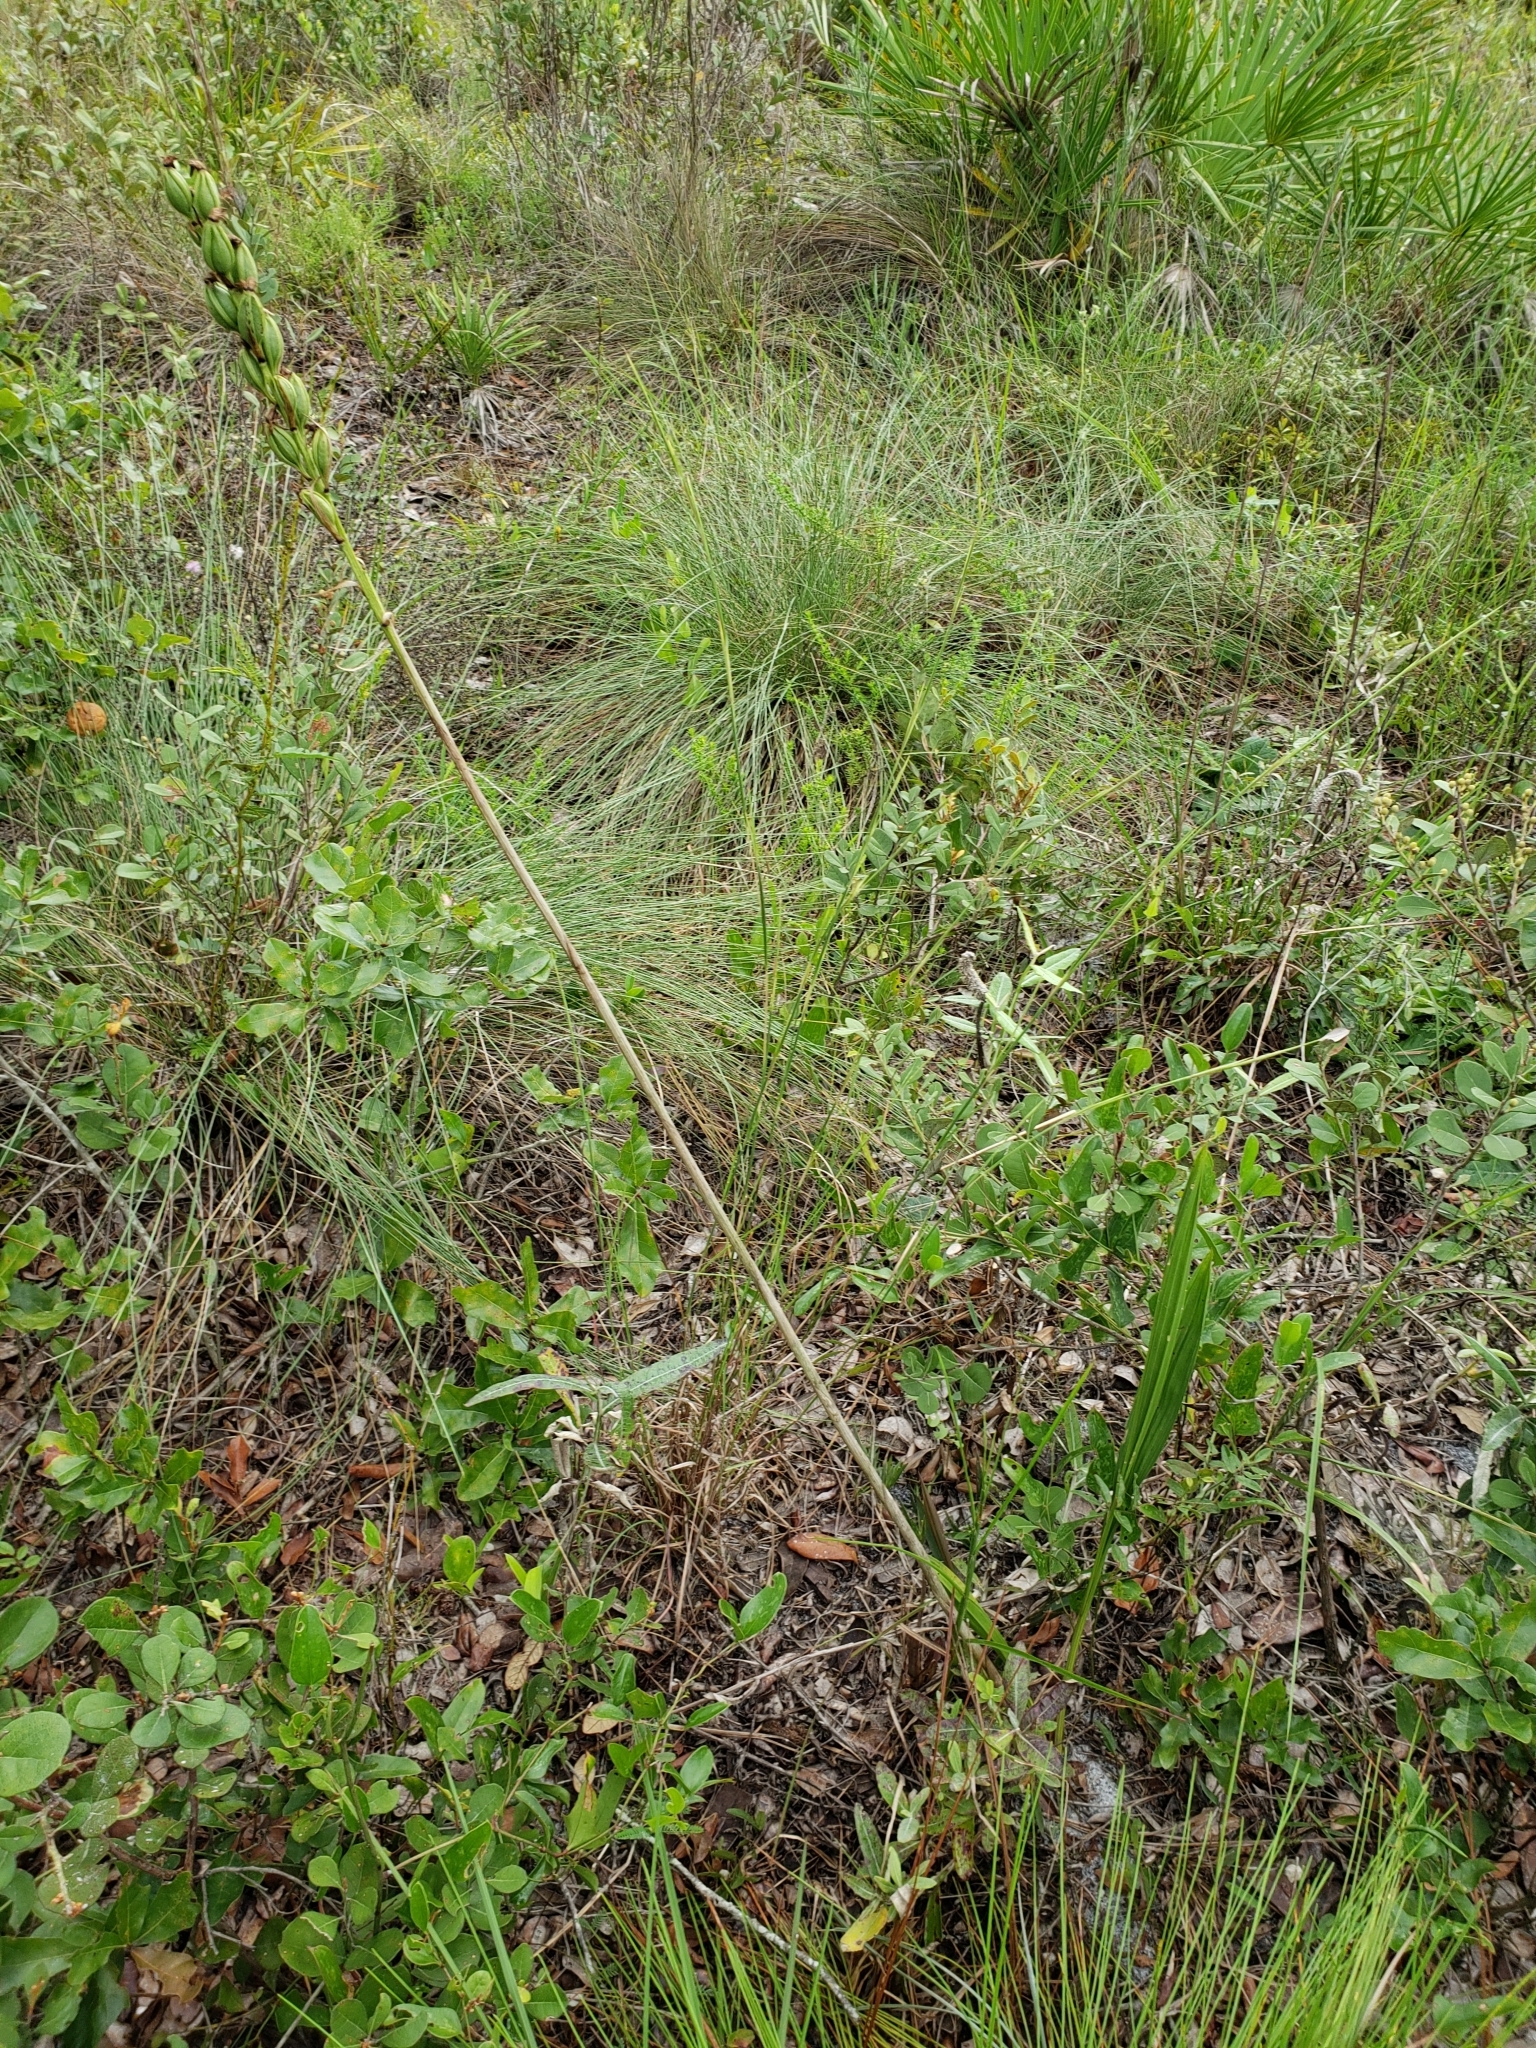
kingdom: Plantae
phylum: Tracheophyta
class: Liliopsida
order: Asparagales
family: Orchidaceae
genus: Eulophia
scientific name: Eulophia ecristata
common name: Giant orchid
